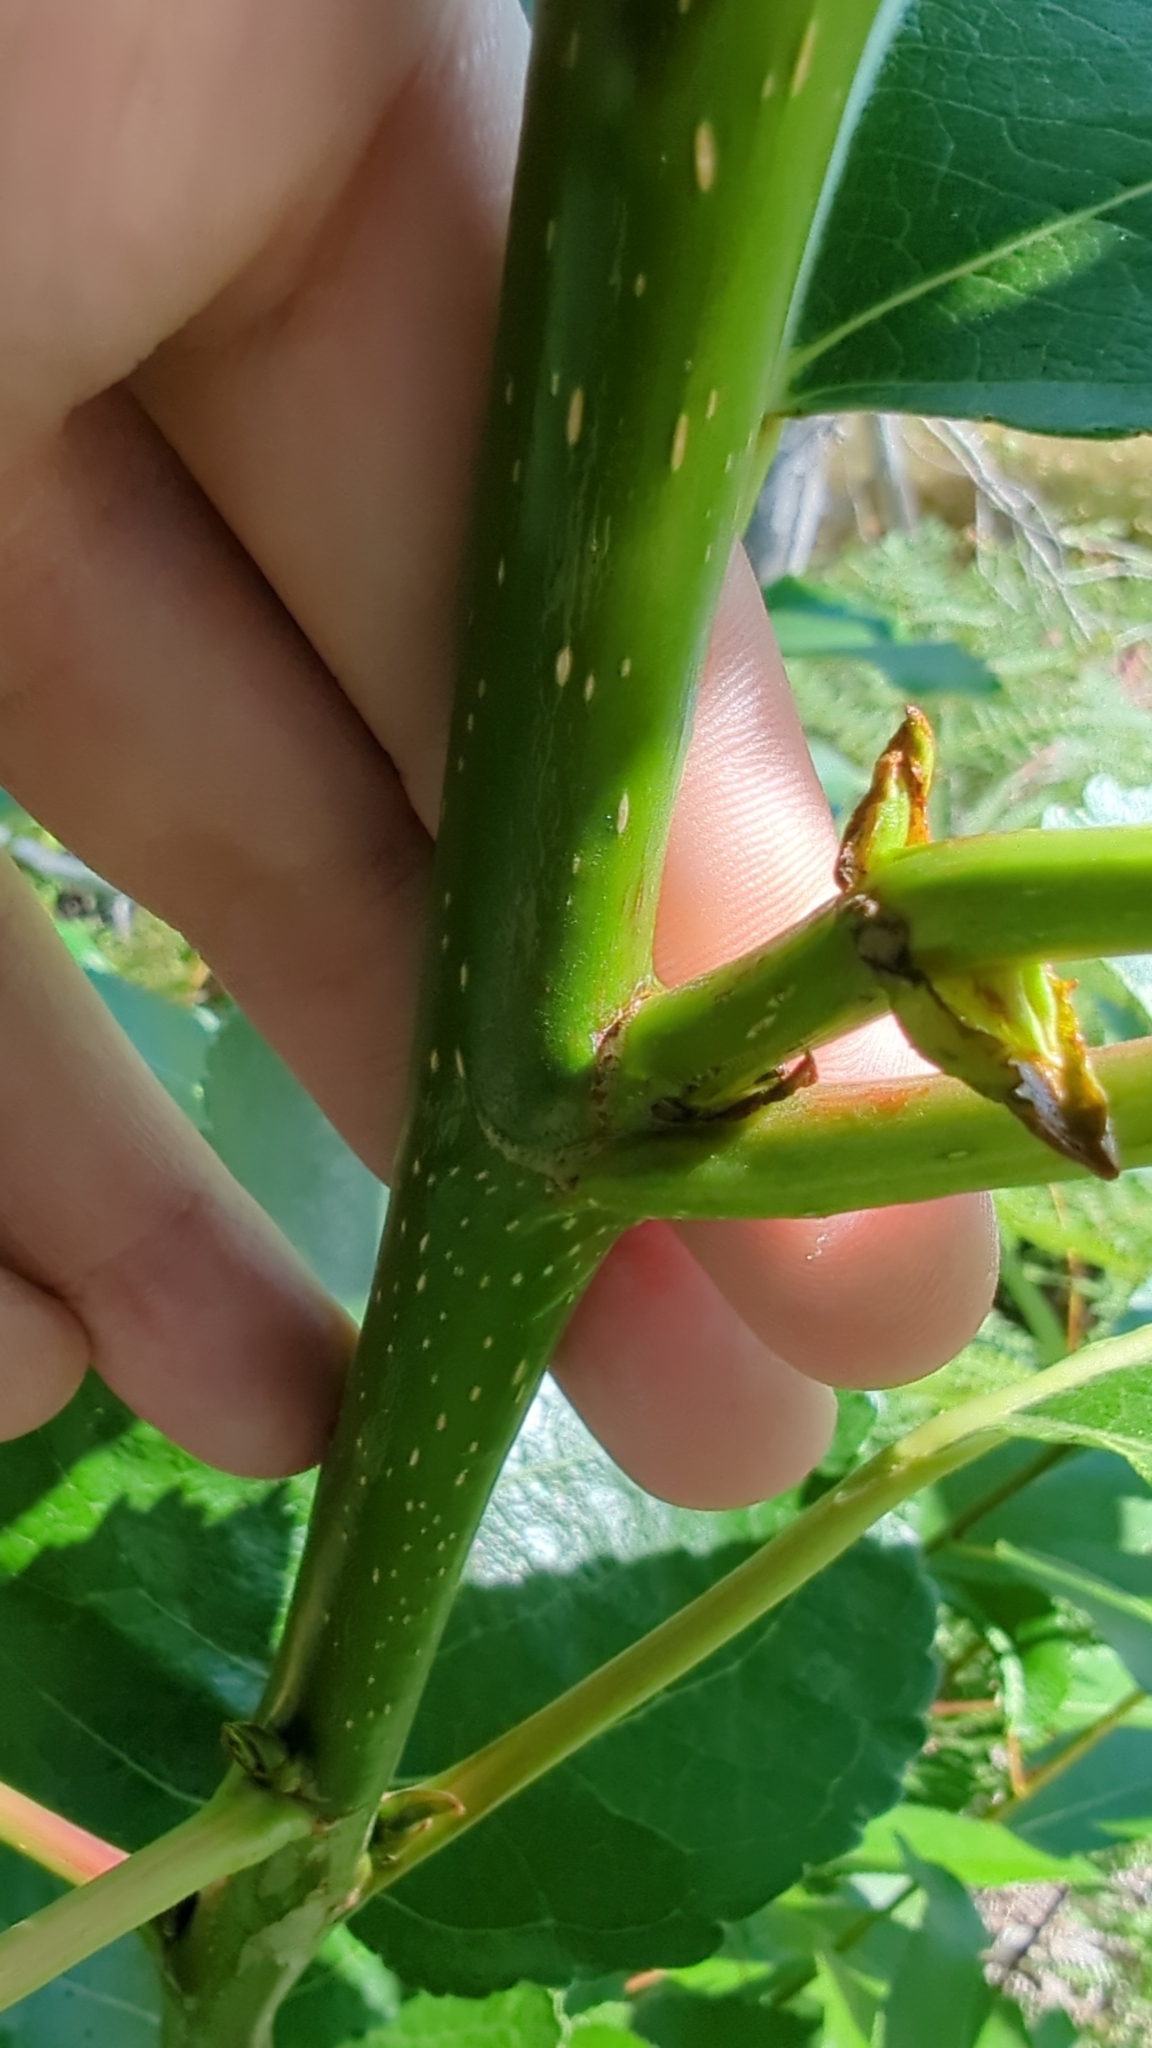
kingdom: Plantae
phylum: Tracheophyta
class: Magnoliopsida
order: Malpighiales
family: Salicaceae
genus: Populus
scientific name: Populus trichocarpa
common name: Black cottonwood
